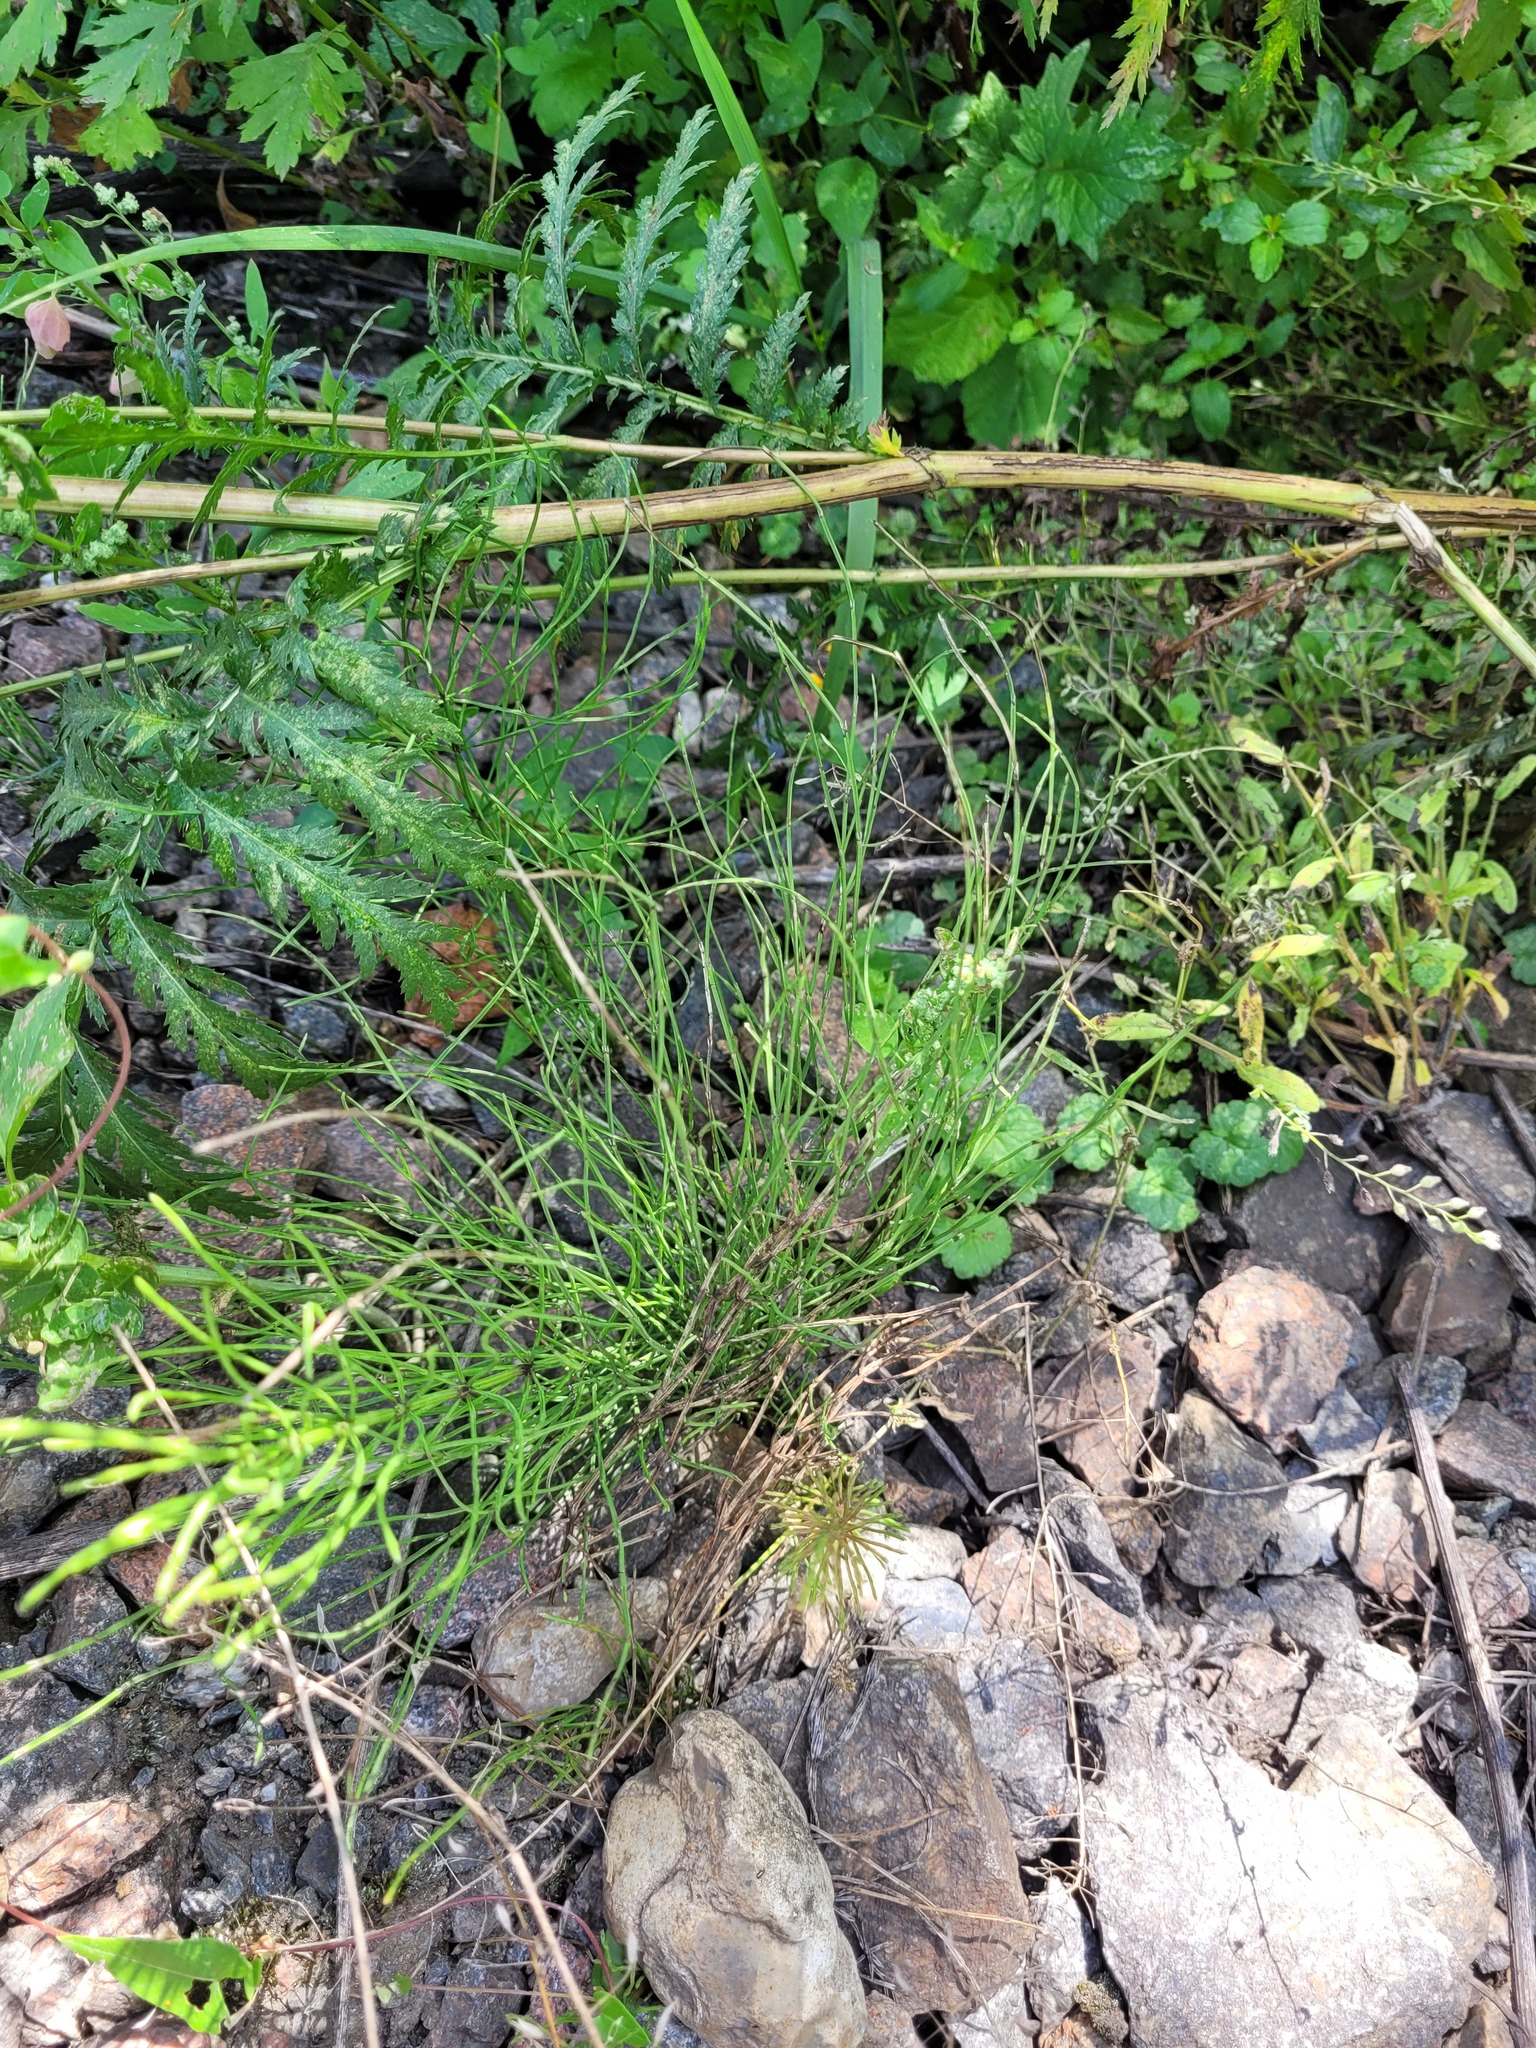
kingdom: Plantae
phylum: Tracheophyta
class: Polypodiopsida
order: Equisetales
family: Equisetaceae
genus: Equisetum
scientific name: Equisetum arvense
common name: Field horsetail
